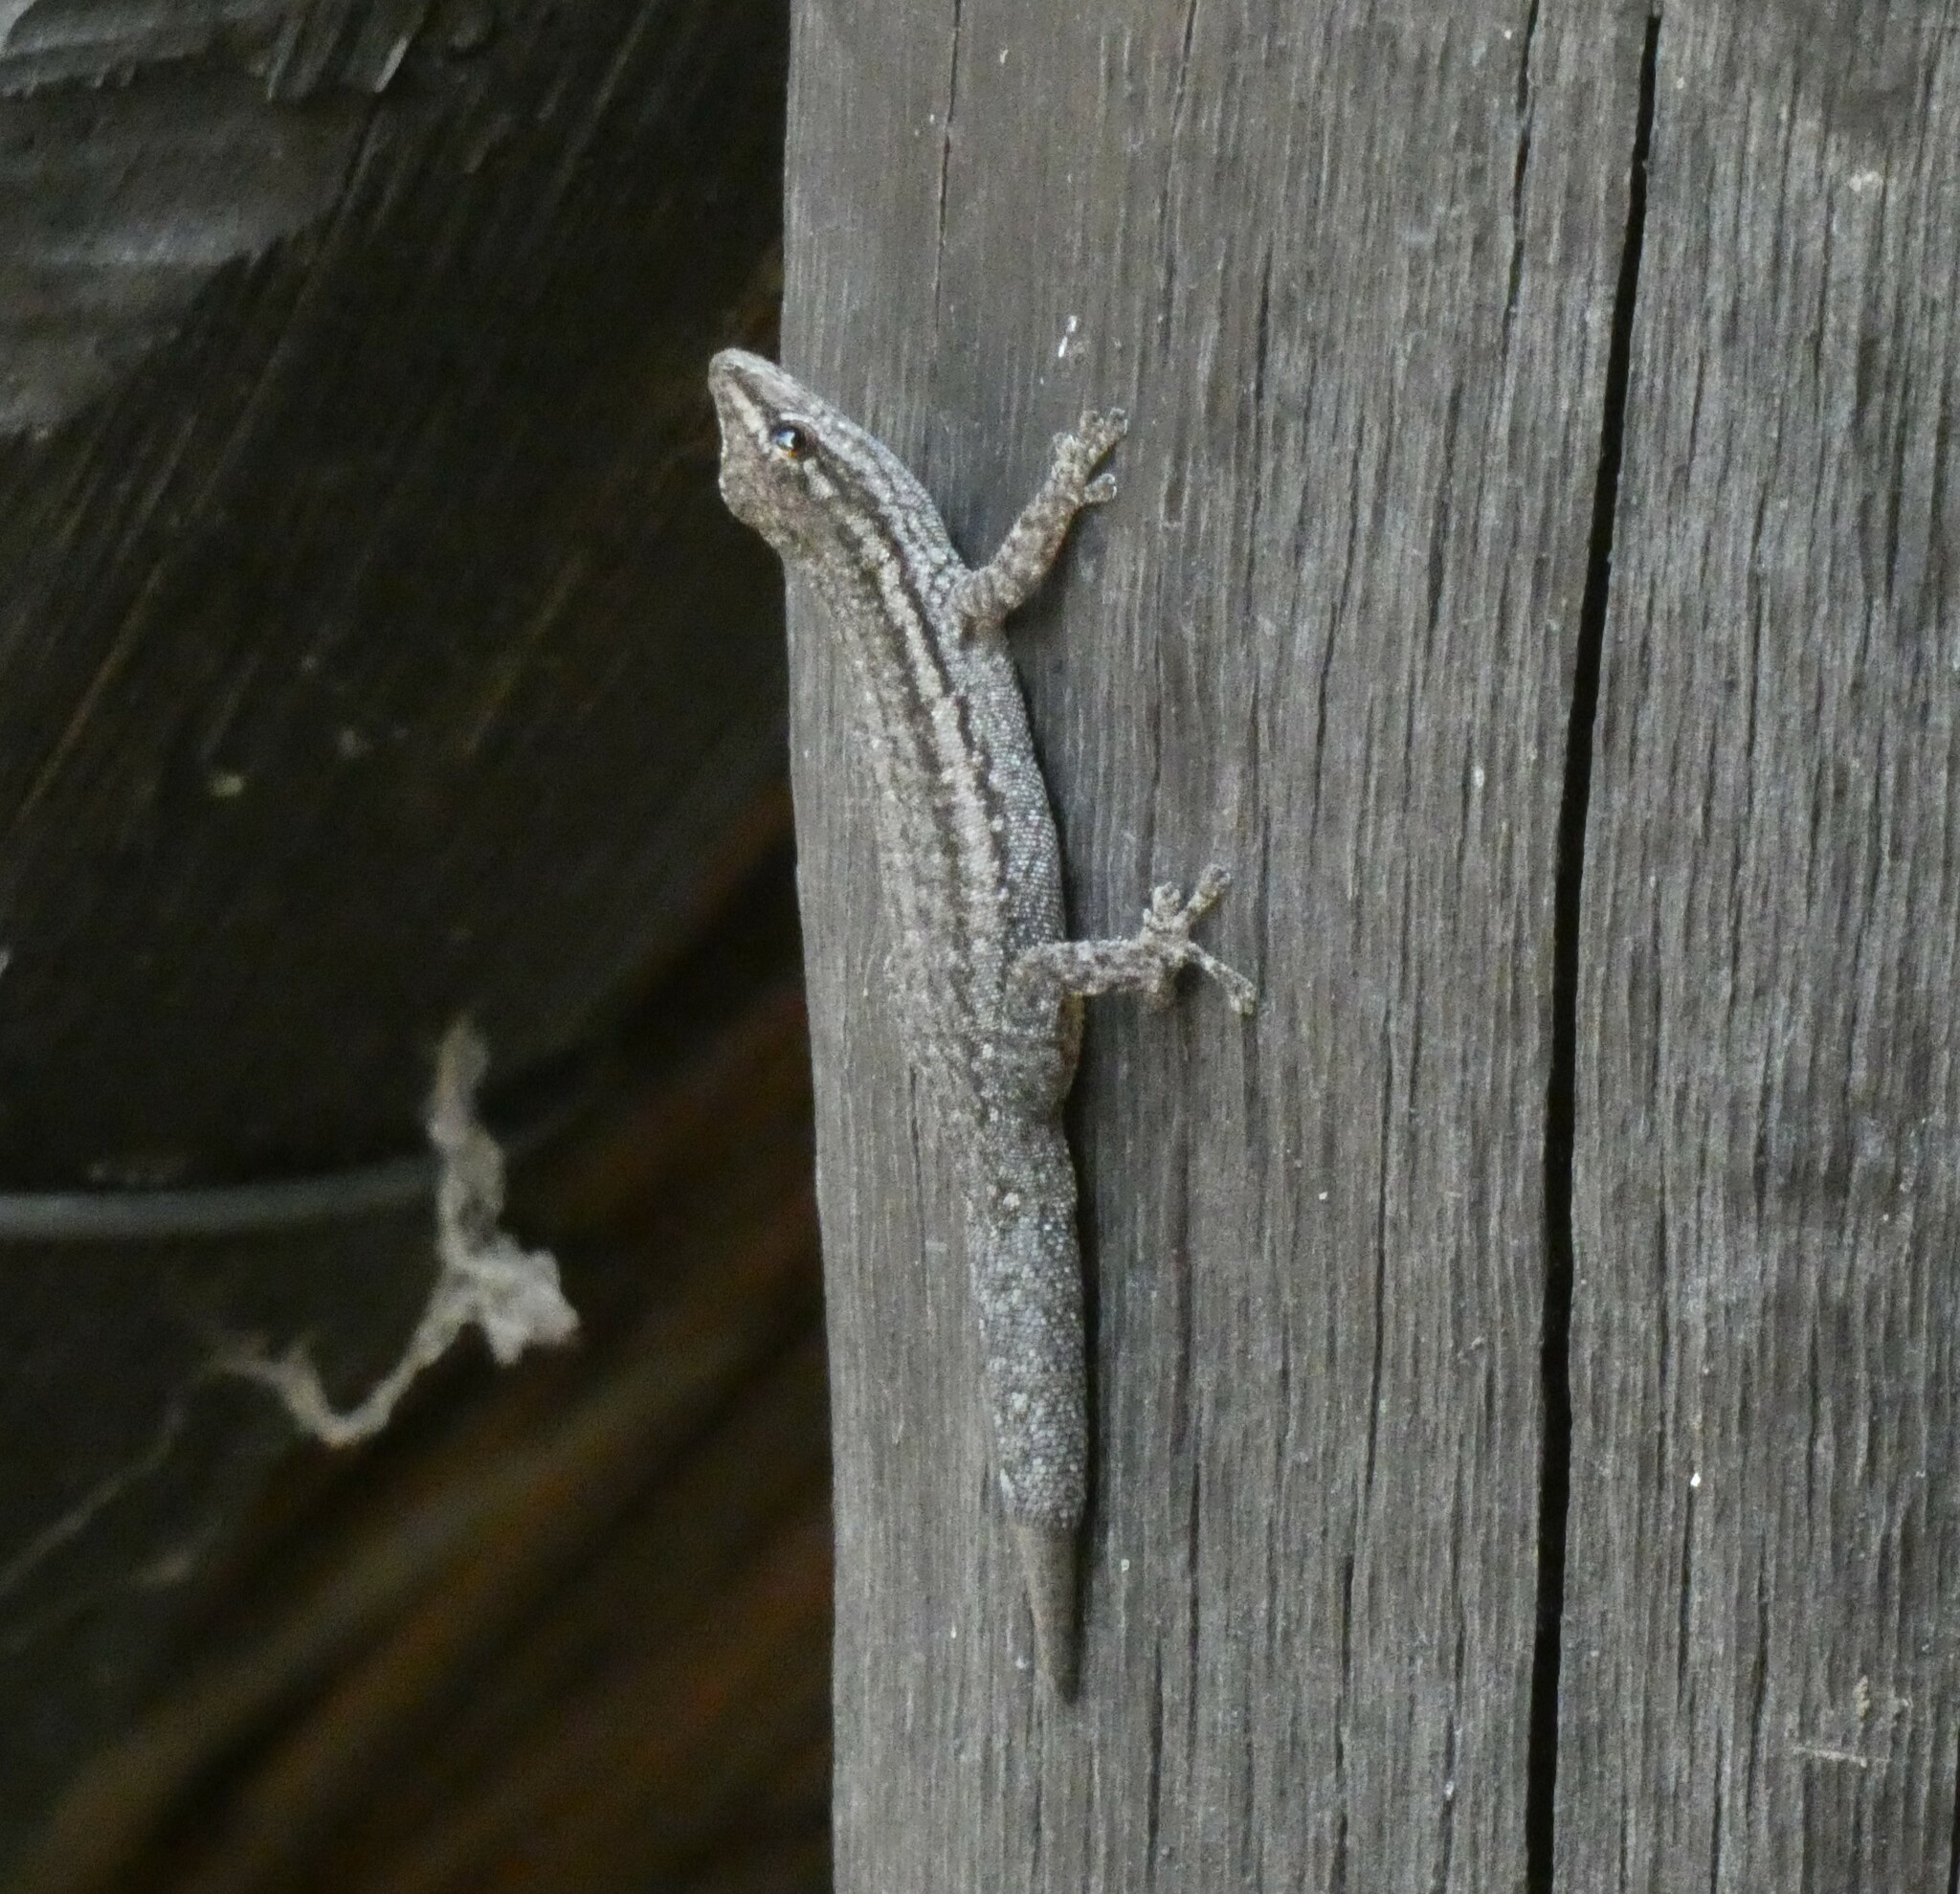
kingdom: Animalia
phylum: Chordata
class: Squamata
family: Gekkonidae
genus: Lygodactylus
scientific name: Lygodactylus capensis
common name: Cape dwarf gecko
